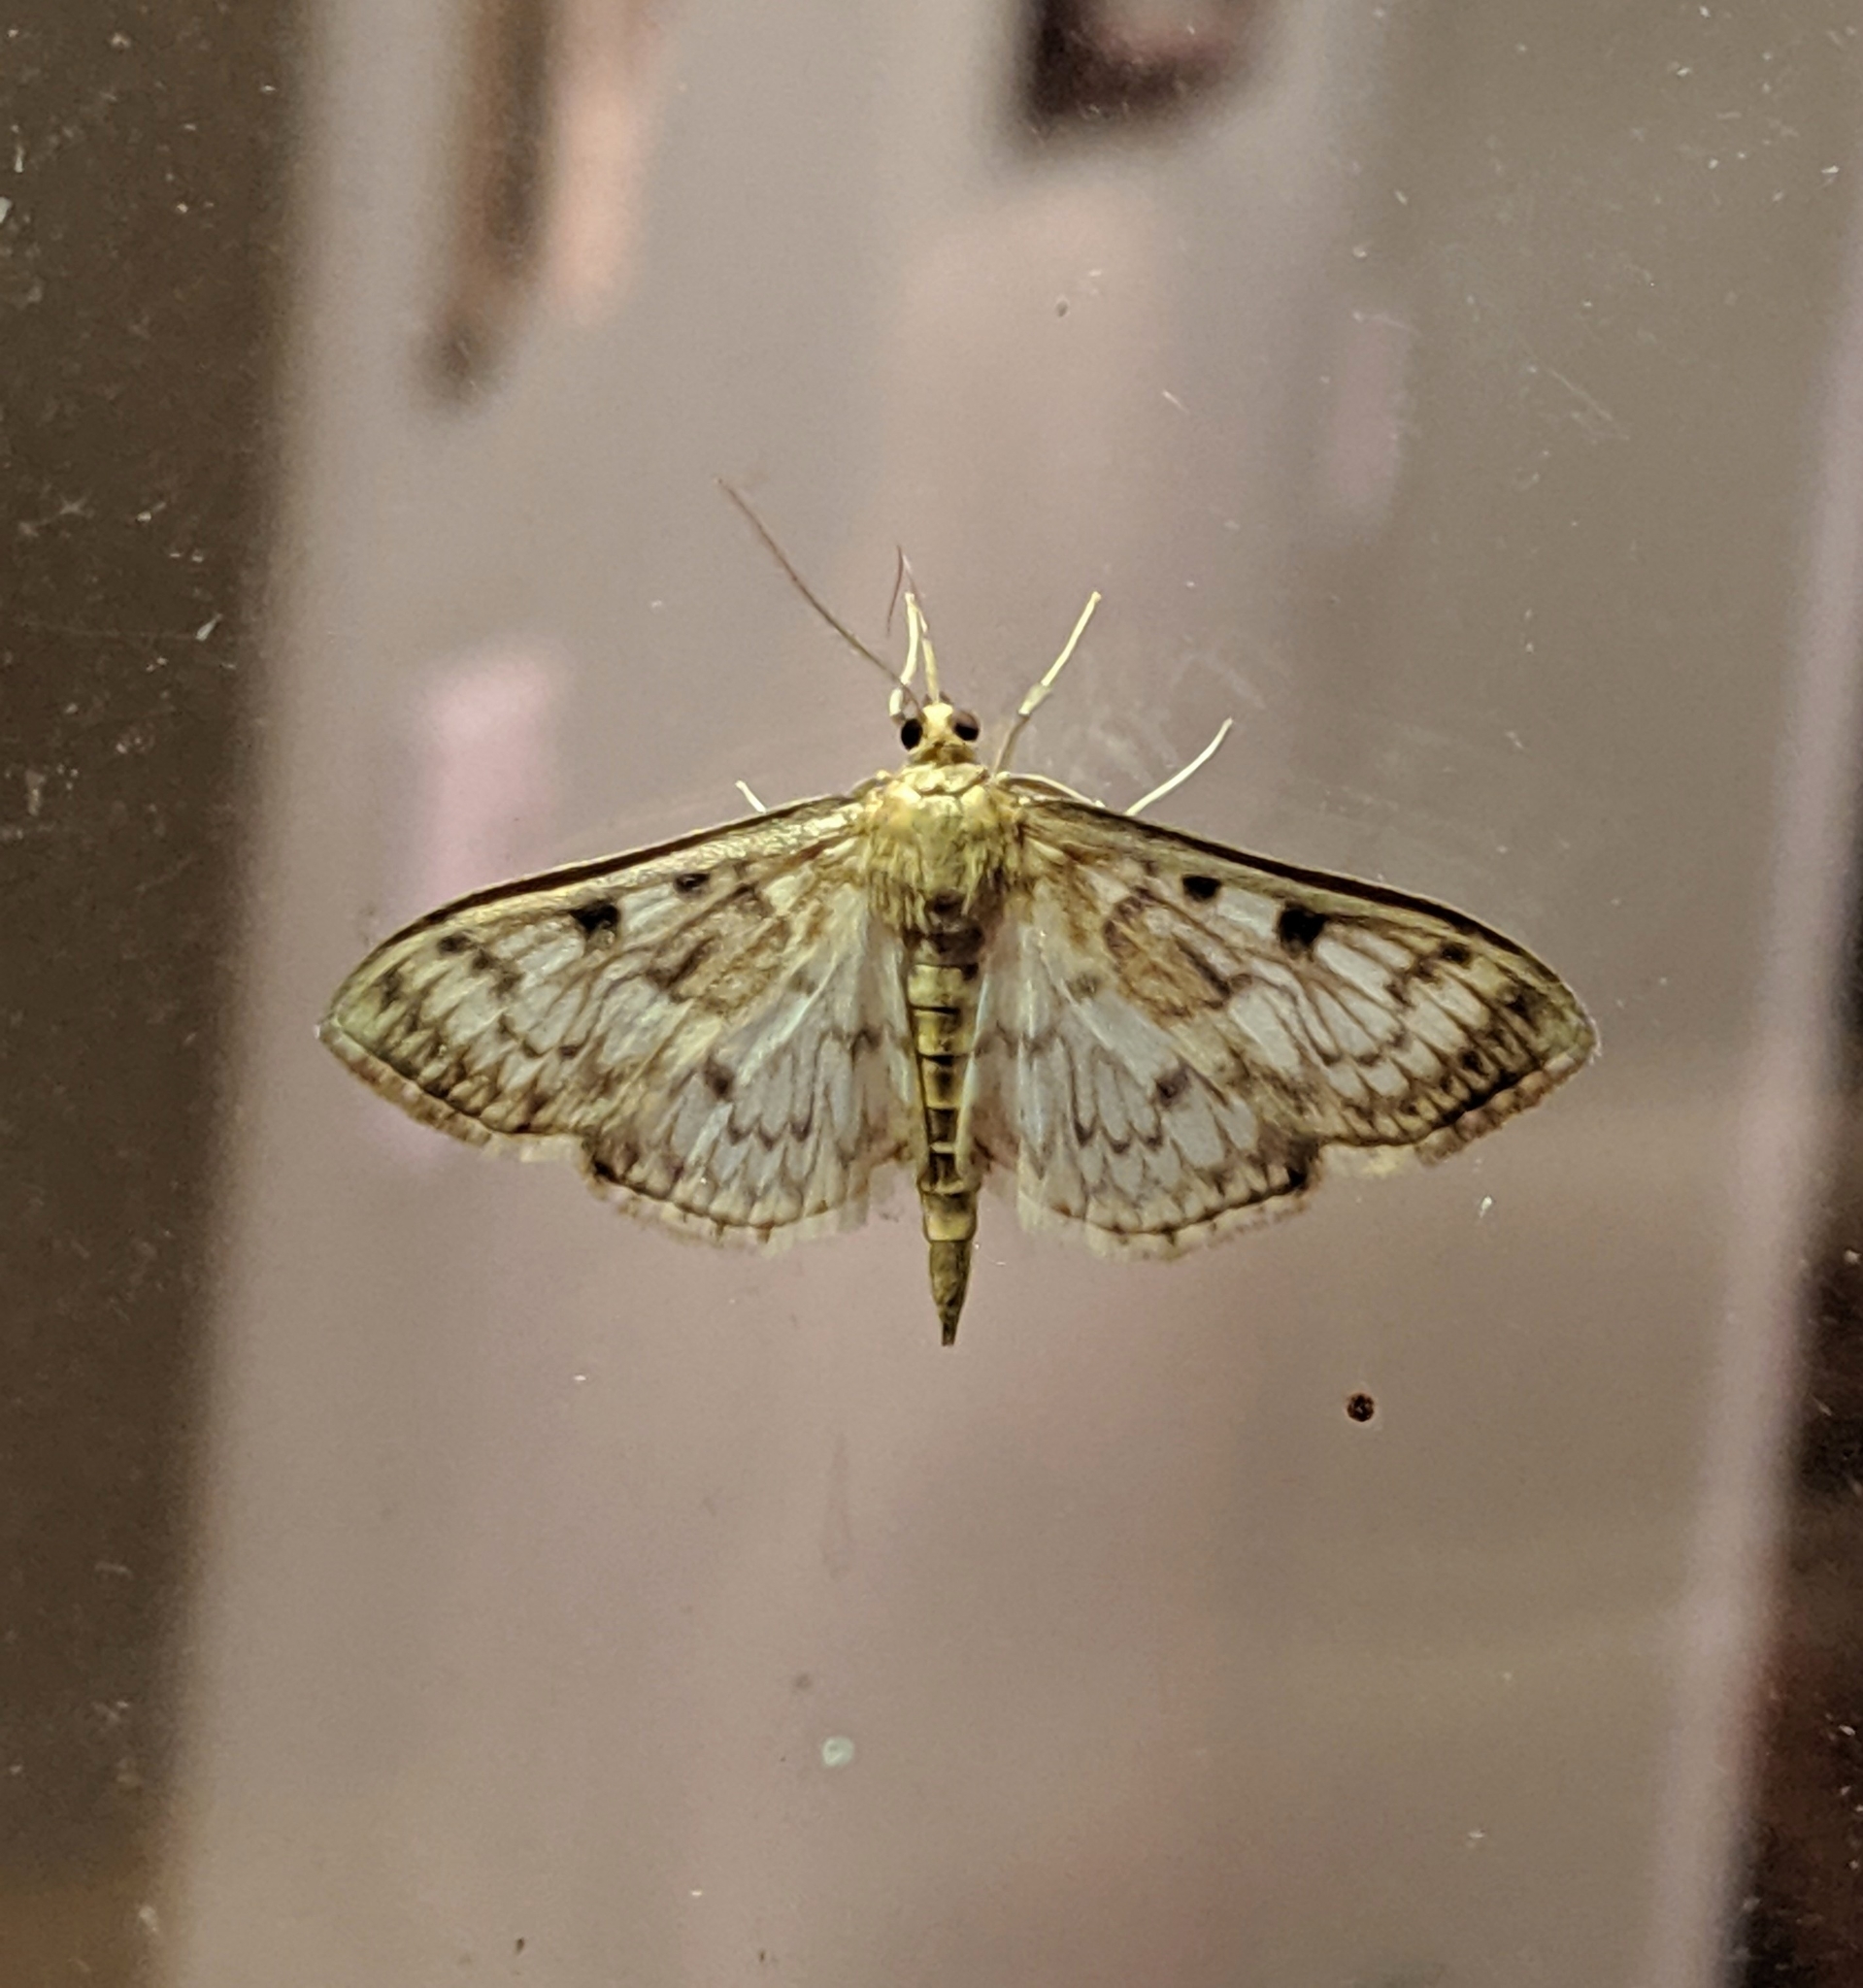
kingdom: Animalia
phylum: Arthropoda
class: Insecta
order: Lepidoptera
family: Crambidae
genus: Herpetogramma
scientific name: Herpetogramma aquilonalis
